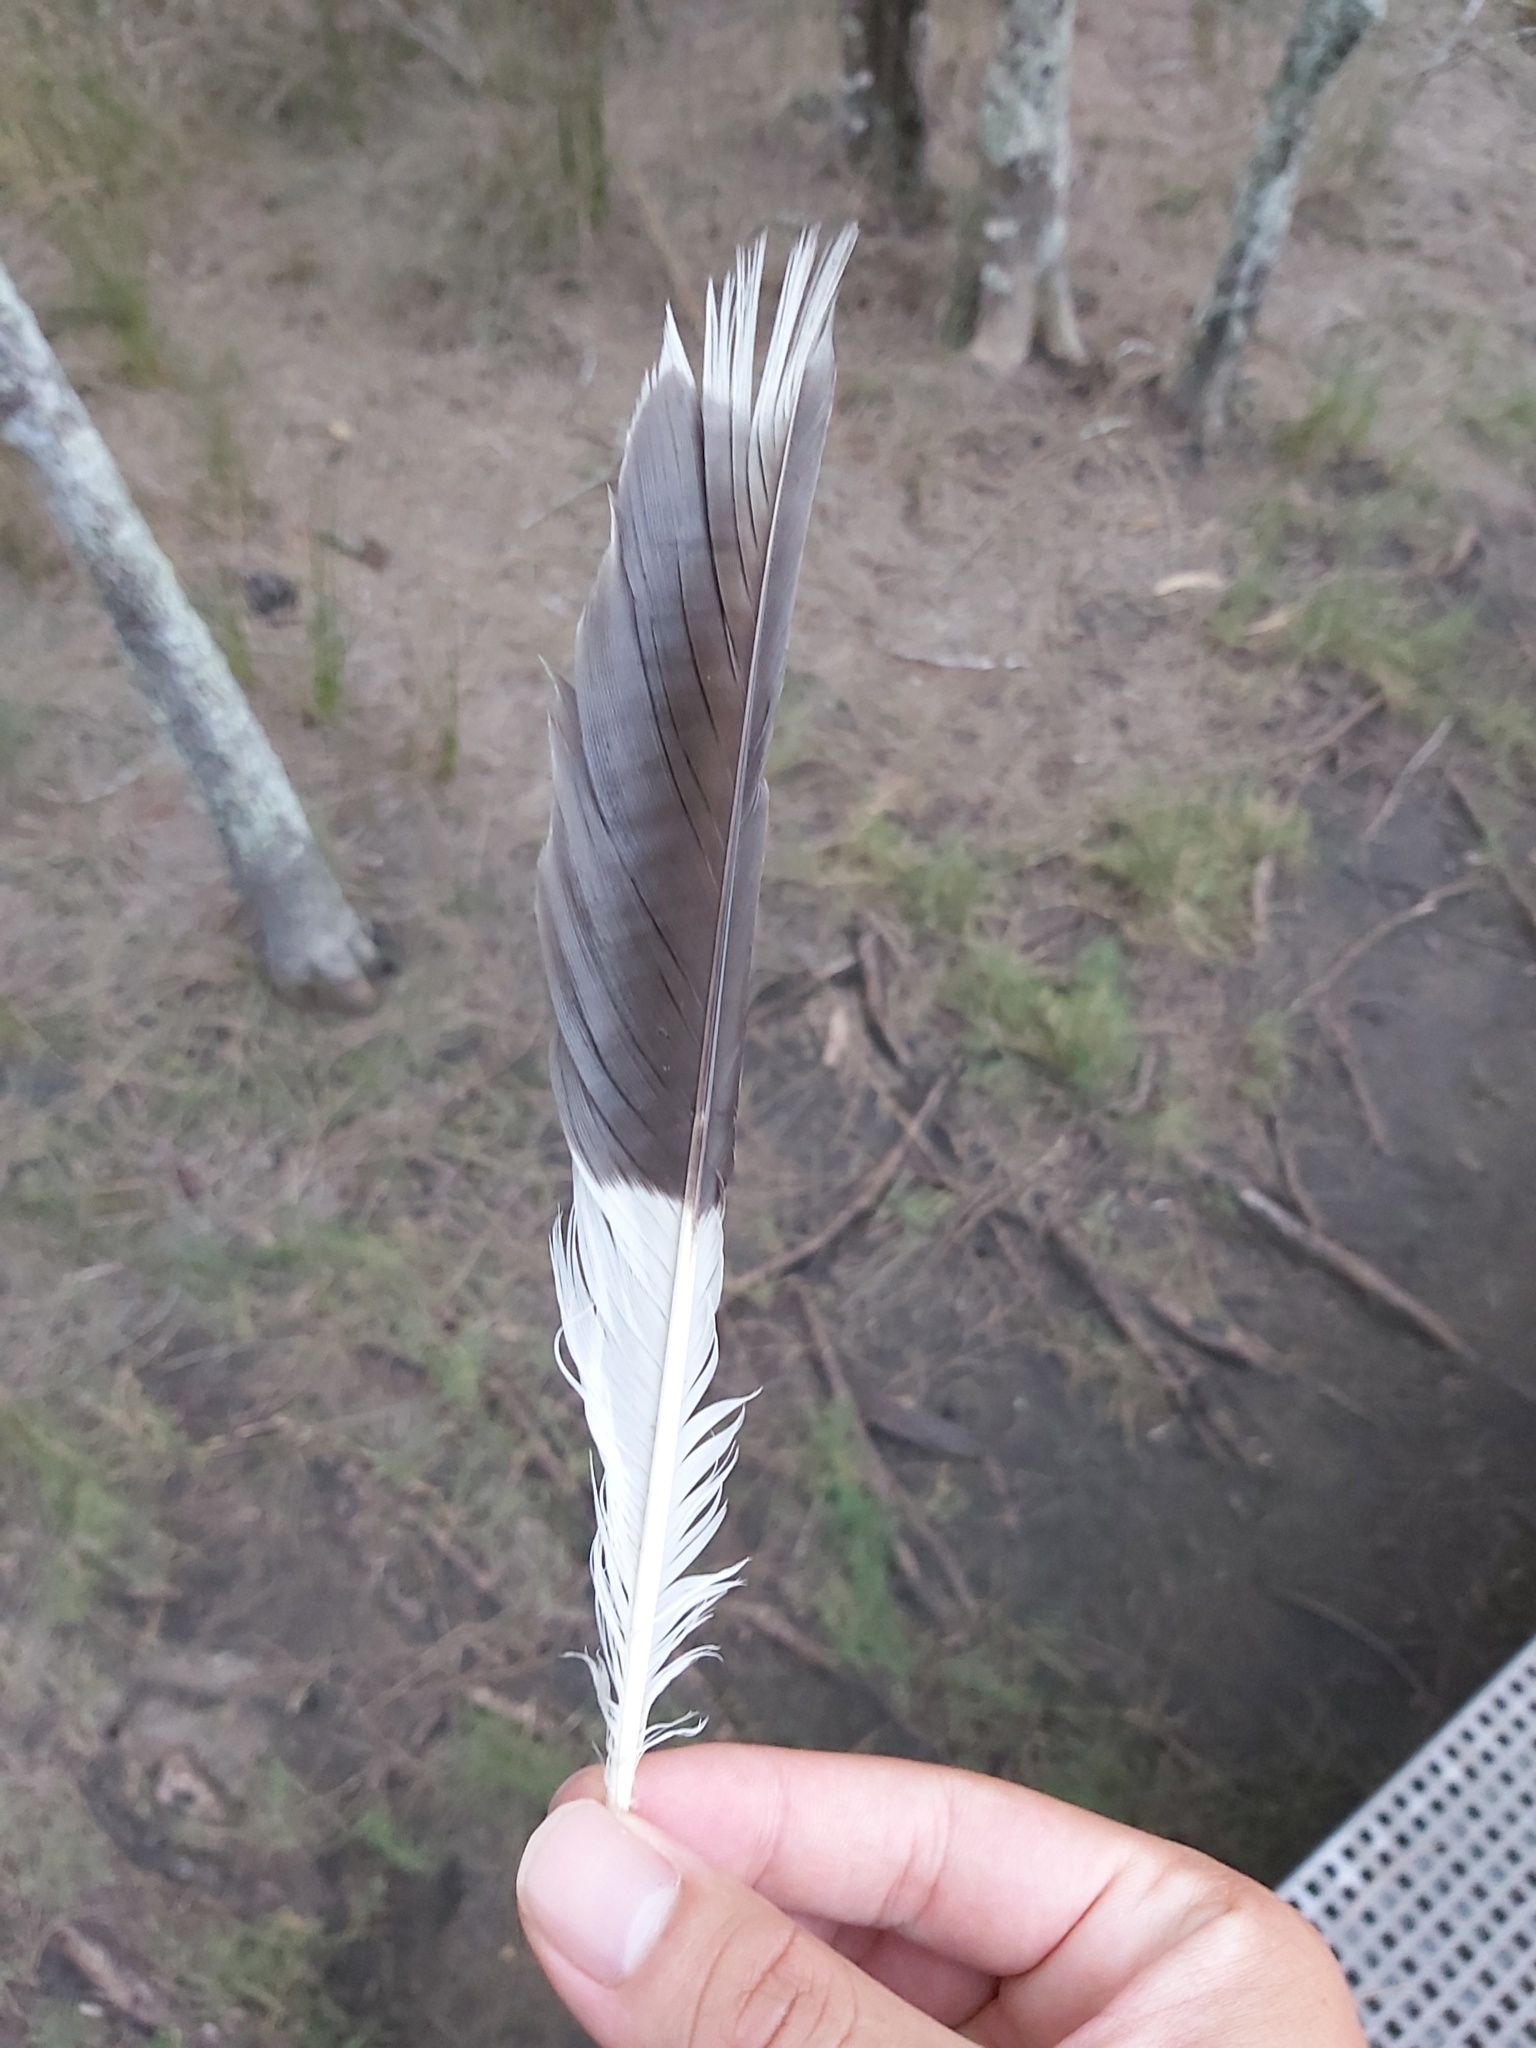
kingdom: Animalia
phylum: Chordata
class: Aves
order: Passeriformes
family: Cracticidae
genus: Strepera
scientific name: Strepera graculina
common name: Pied currawong
